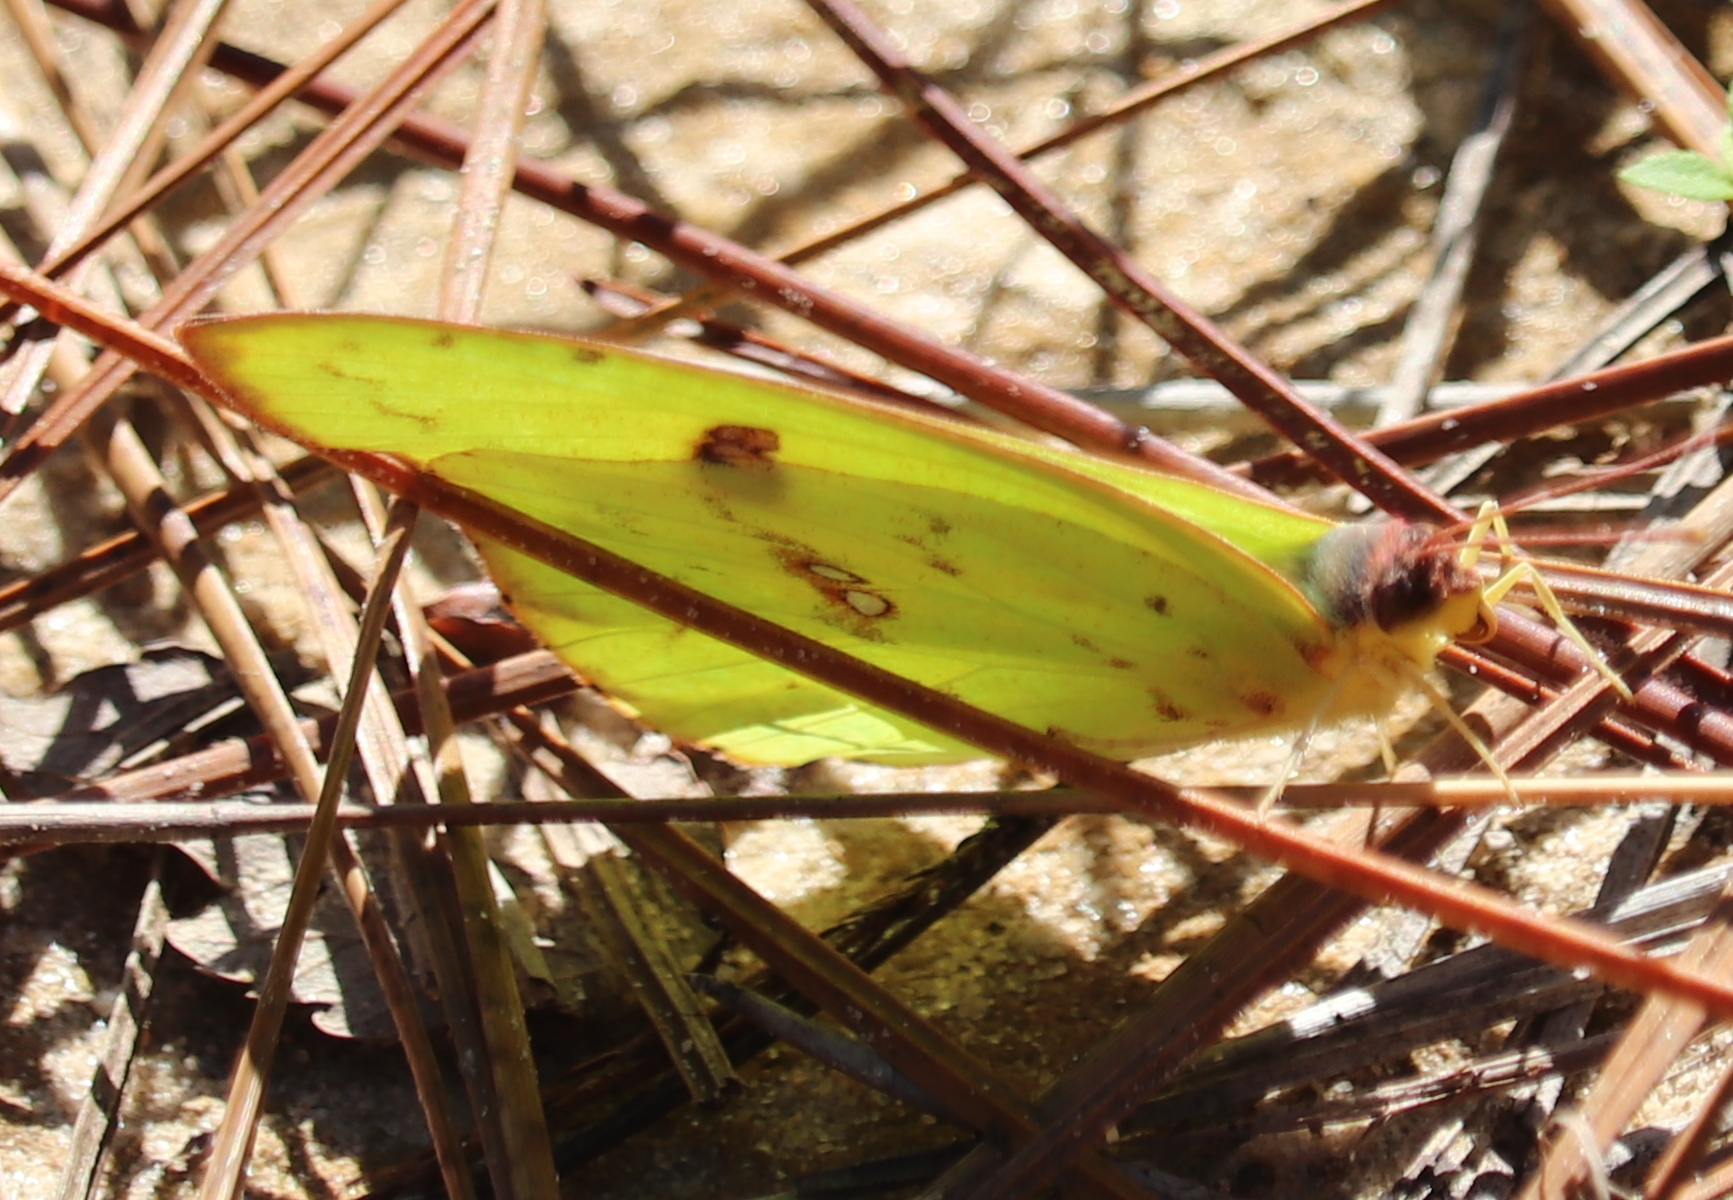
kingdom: Animalia
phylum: Arthropoda
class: Insecta
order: Lepidoptera
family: Pieridae
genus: Phoebis
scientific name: Phoebis sennae
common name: Cloudless sulphur
